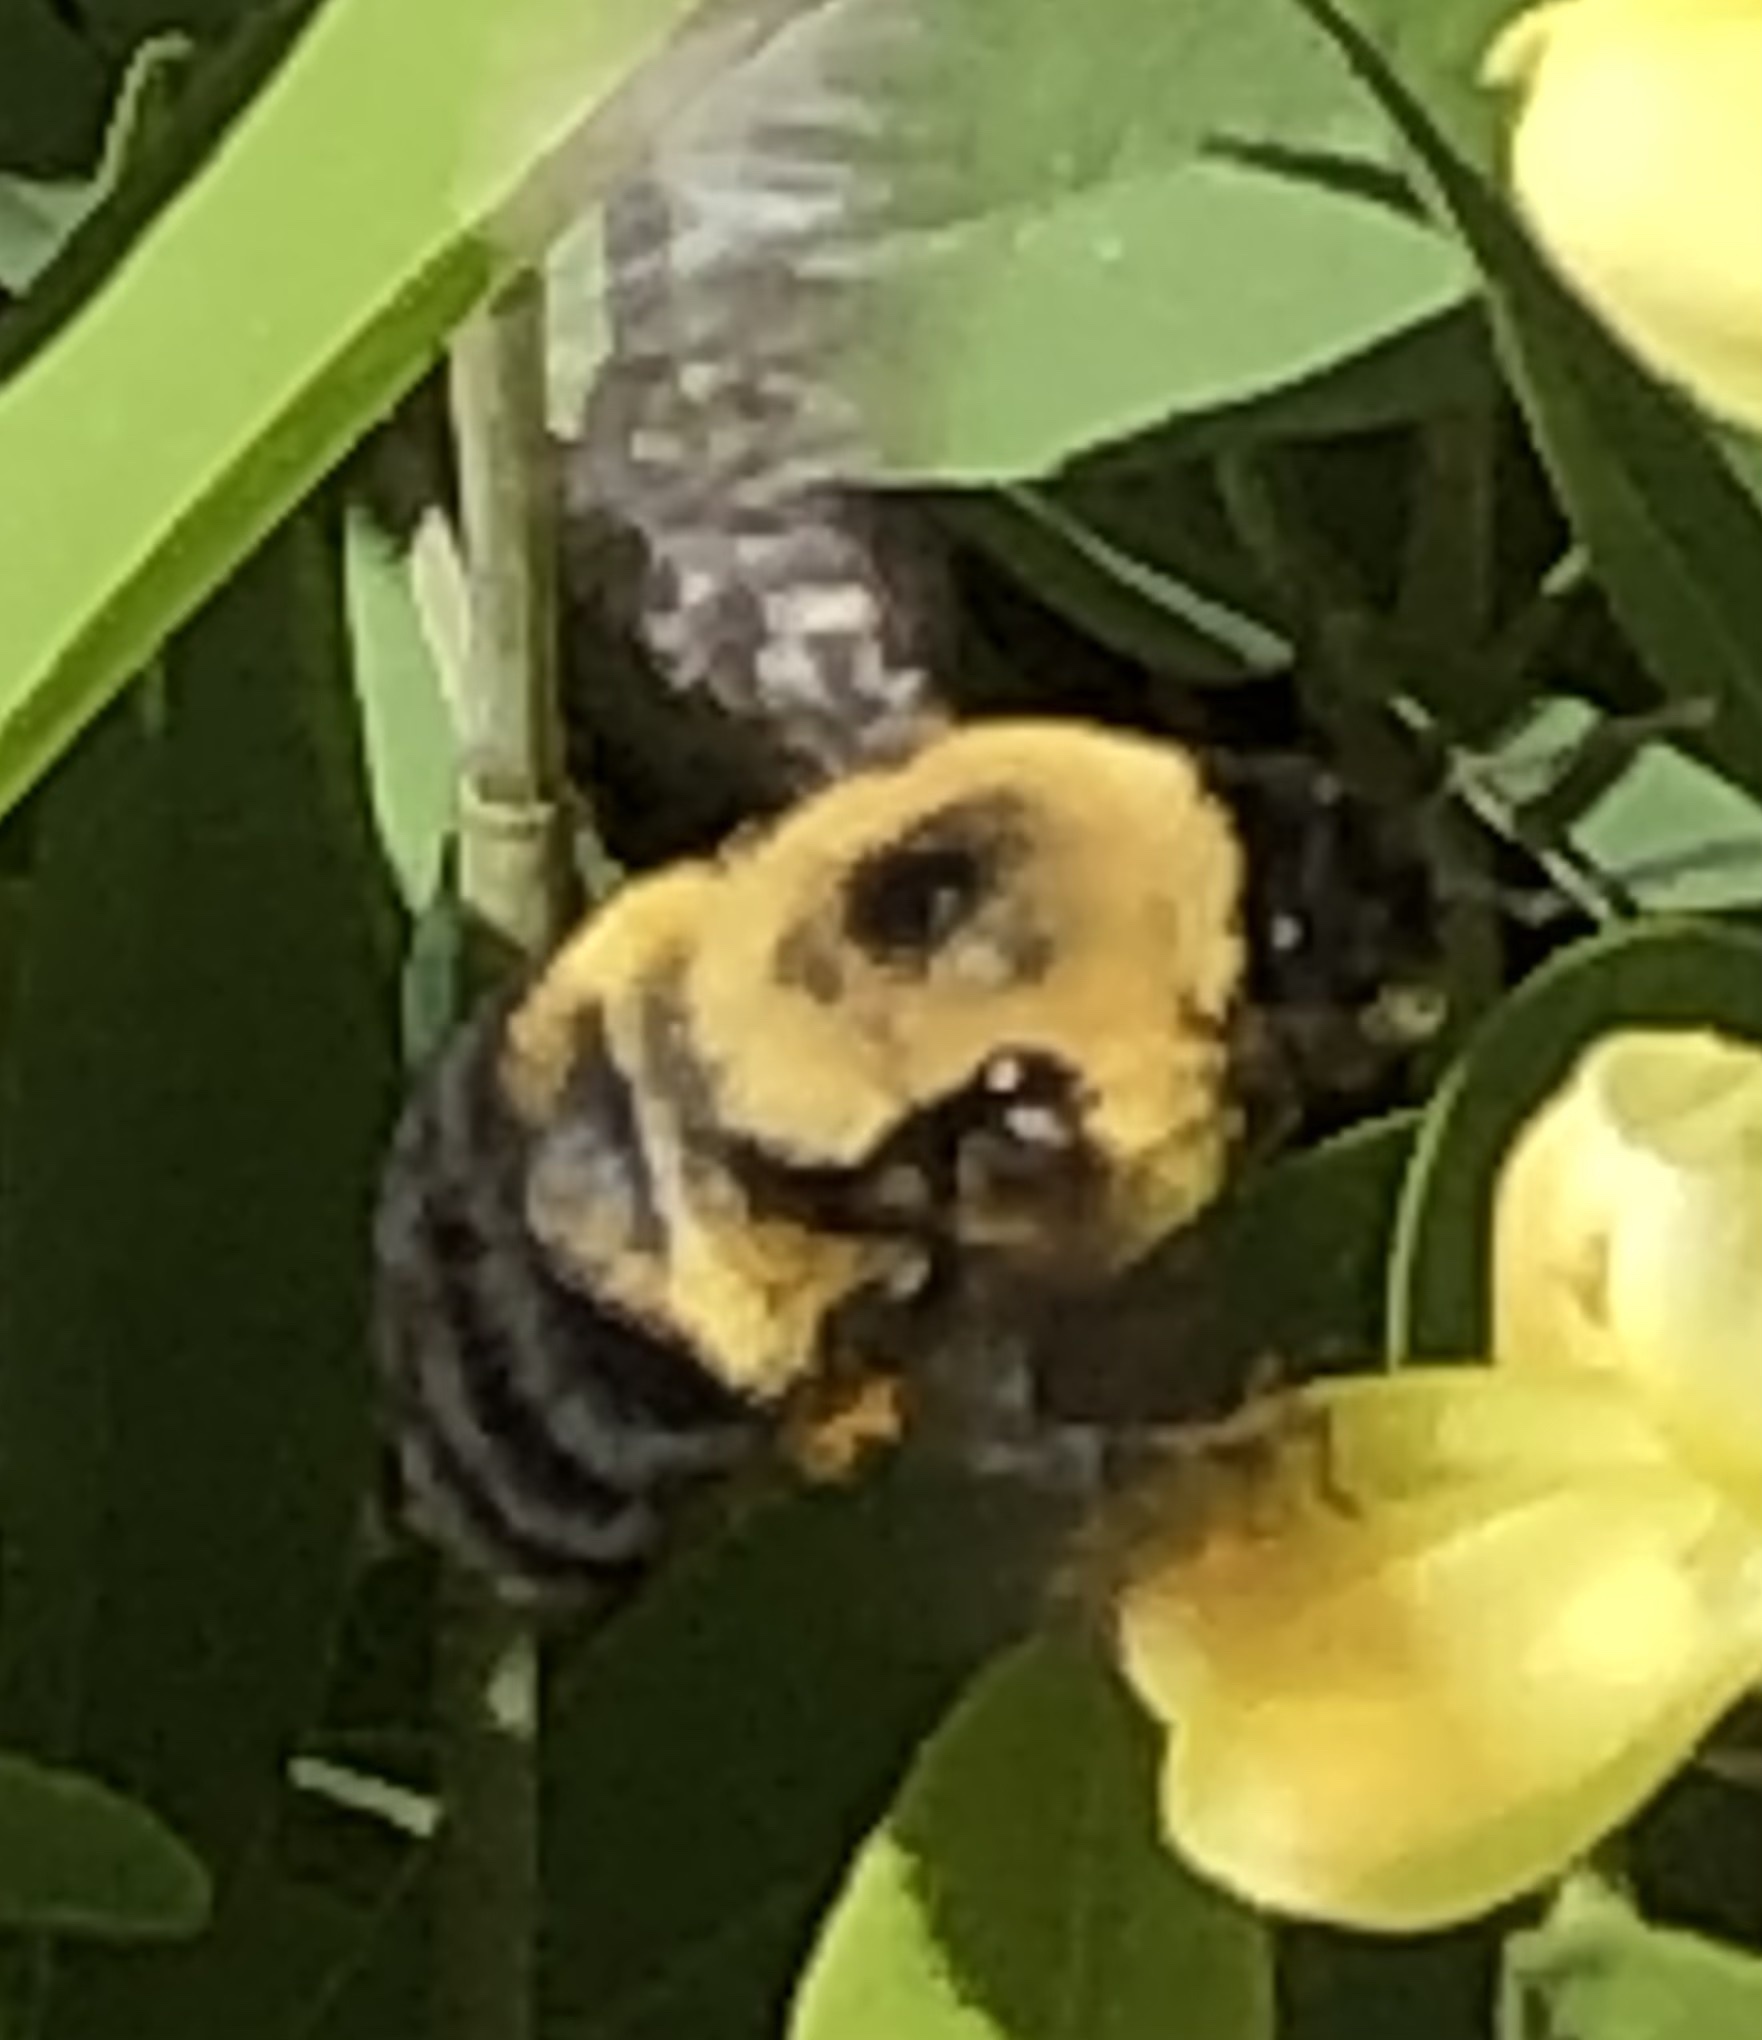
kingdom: Animalia
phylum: Arthropoda
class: Insecta
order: Hymenoptera
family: Apidae
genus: Bombus
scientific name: Bombus griseocollis
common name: Brown-belted bumble bee
